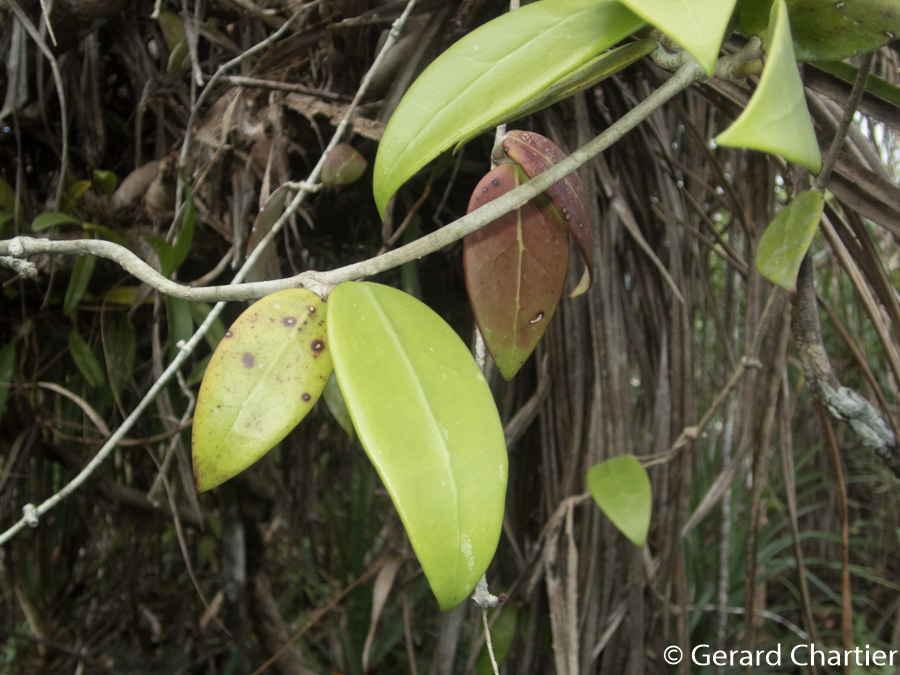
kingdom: Plantae
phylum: Tracheophyta
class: Magnoliopsida
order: Gentianales
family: Apocynaceae
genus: Hoya
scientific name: Hoya verticillata
